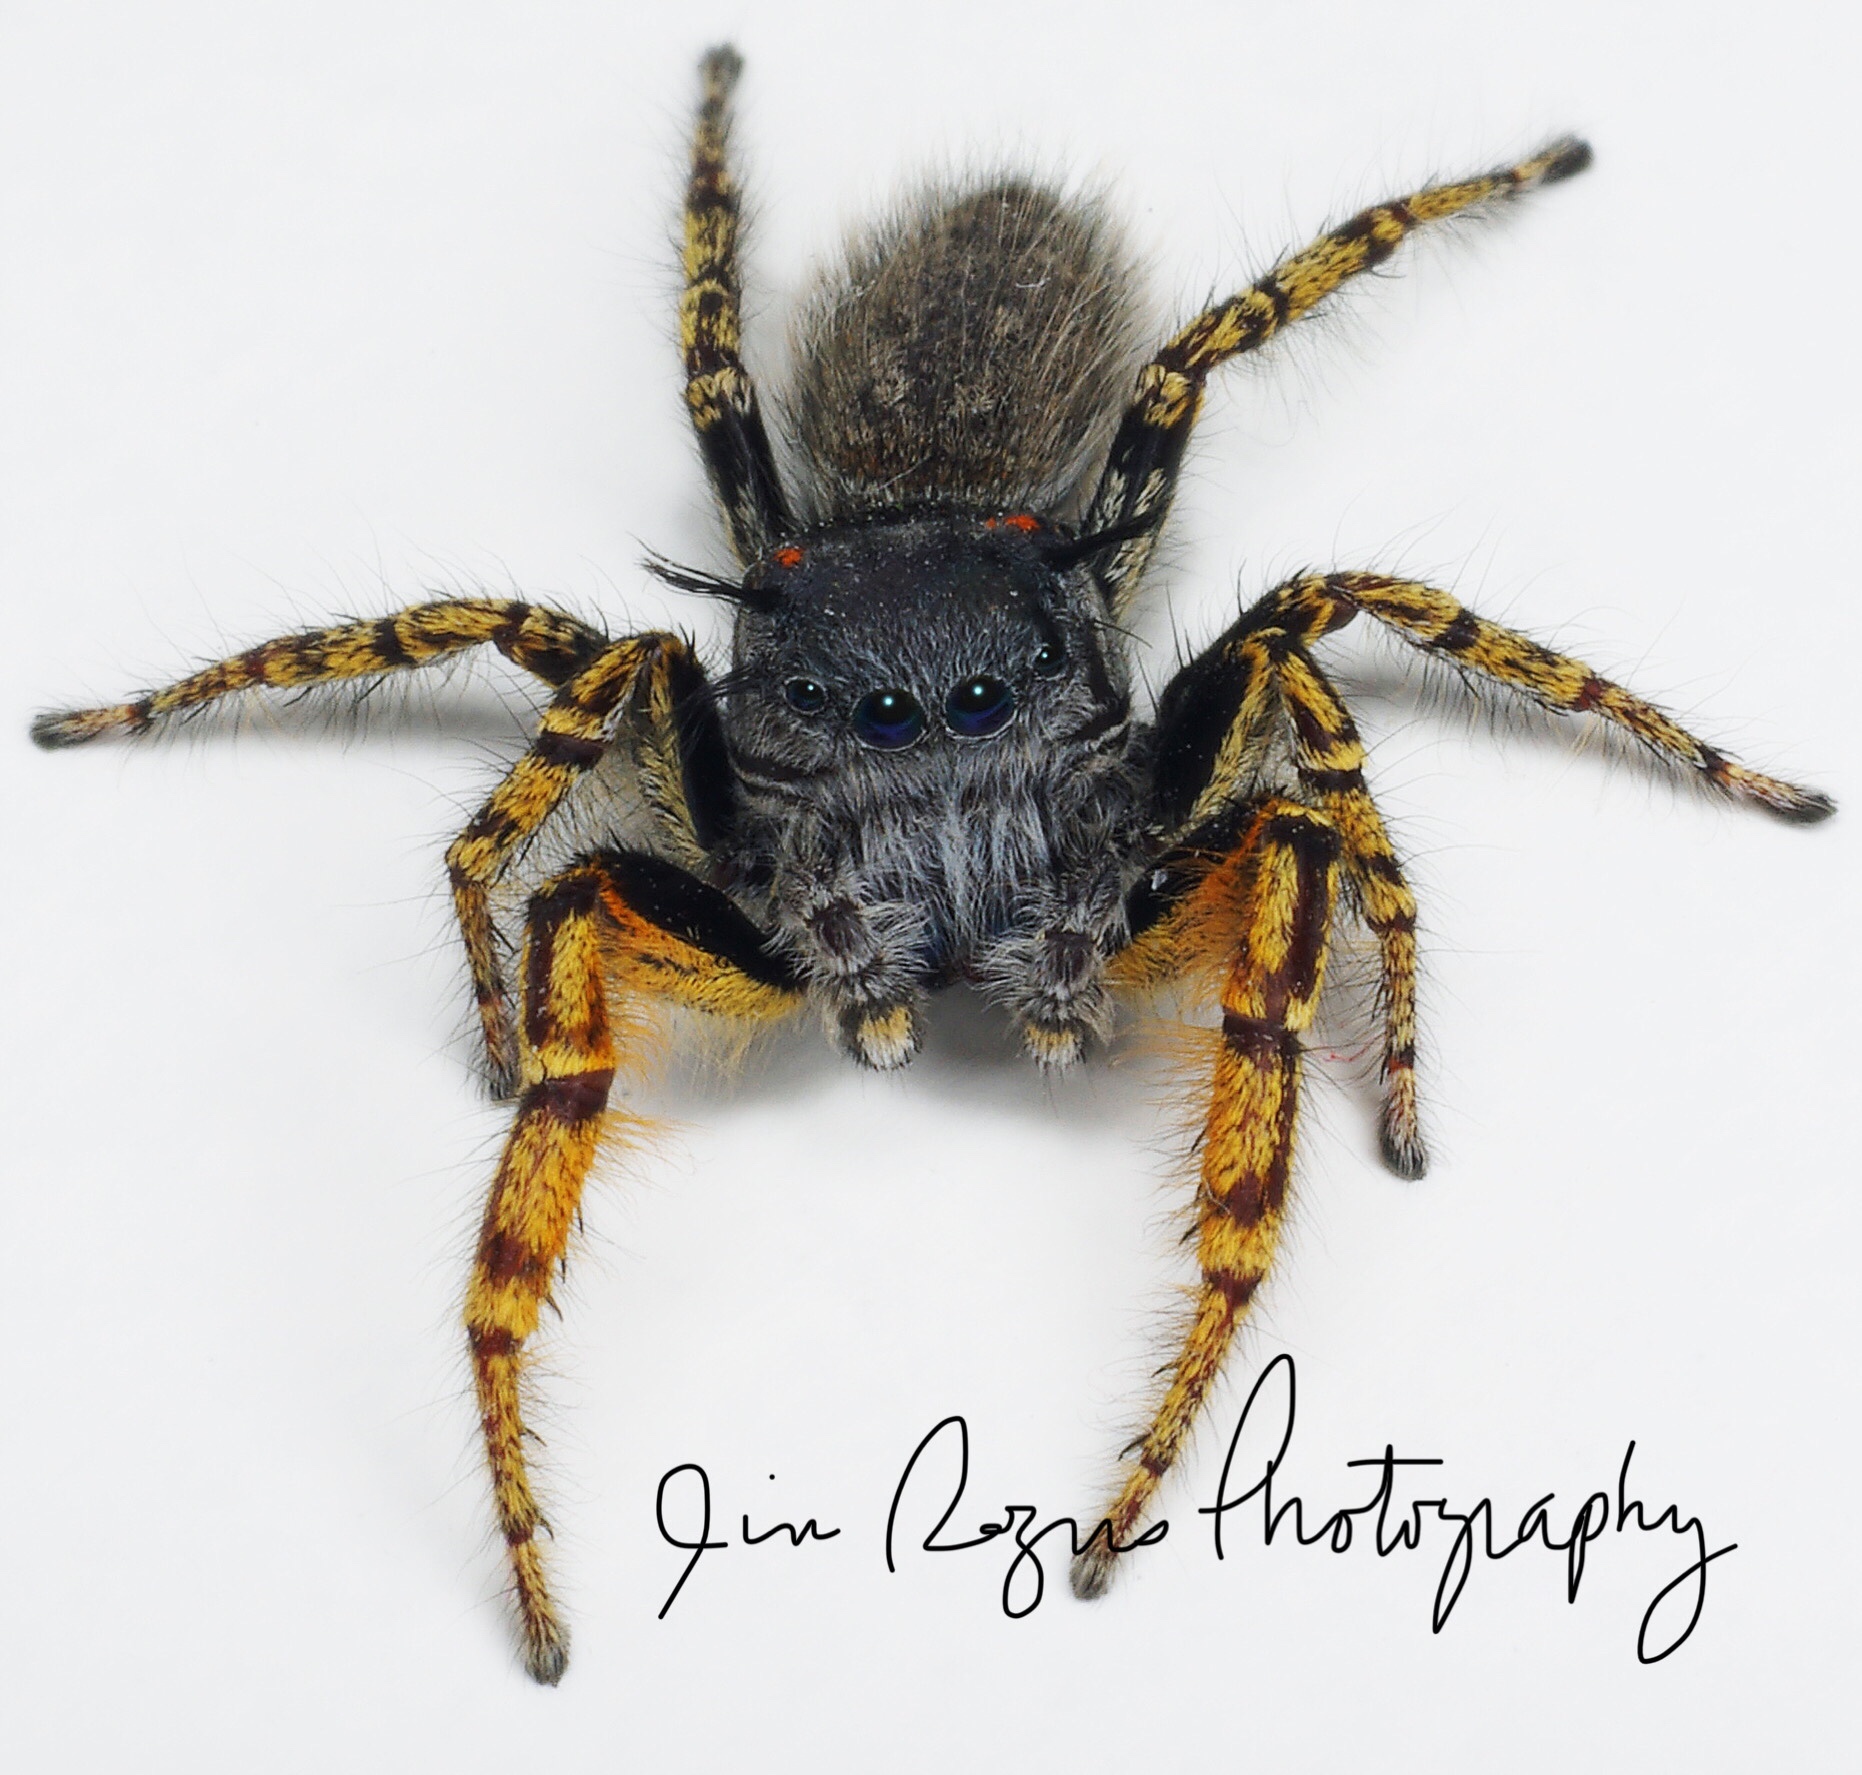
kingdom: Animalia
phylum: Arthropoda
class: Arachnida
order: Araneae
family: Salticidae
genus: Phidippus
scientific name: Phidippus mystaceus
